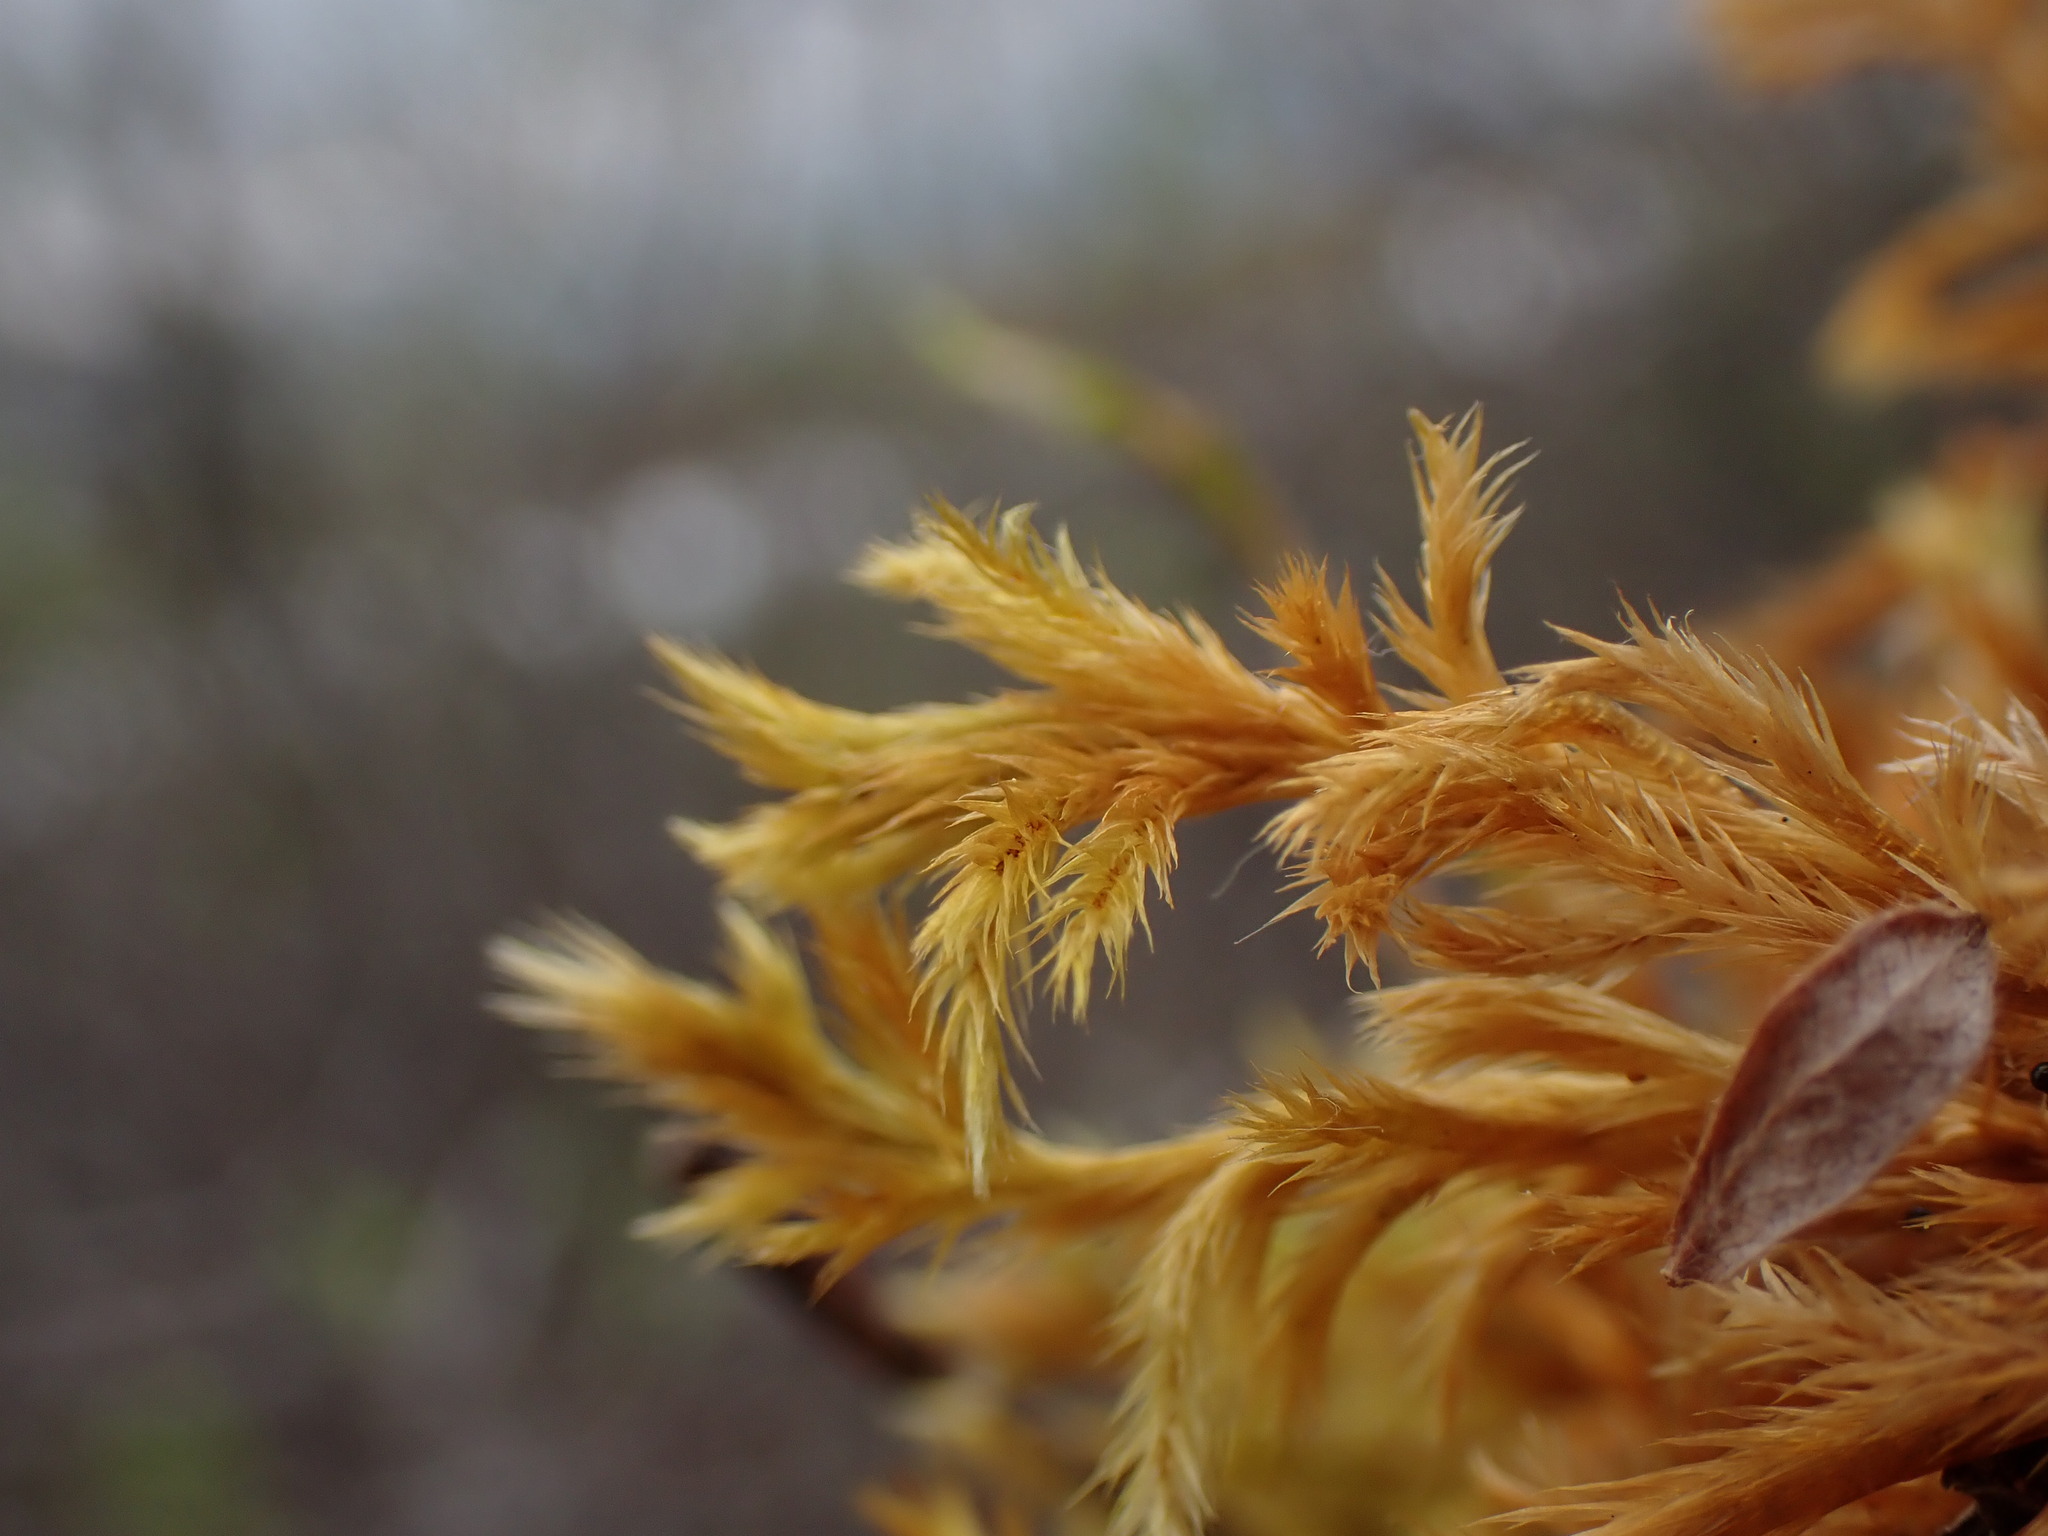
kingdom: Plantae
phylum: Bryophyta
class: Bryopsida
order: Hypnales
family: Amblystegiaceae
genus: Tomentypnum
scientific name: Tomentypnum nitens
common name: Golden fuzzy fen moss
